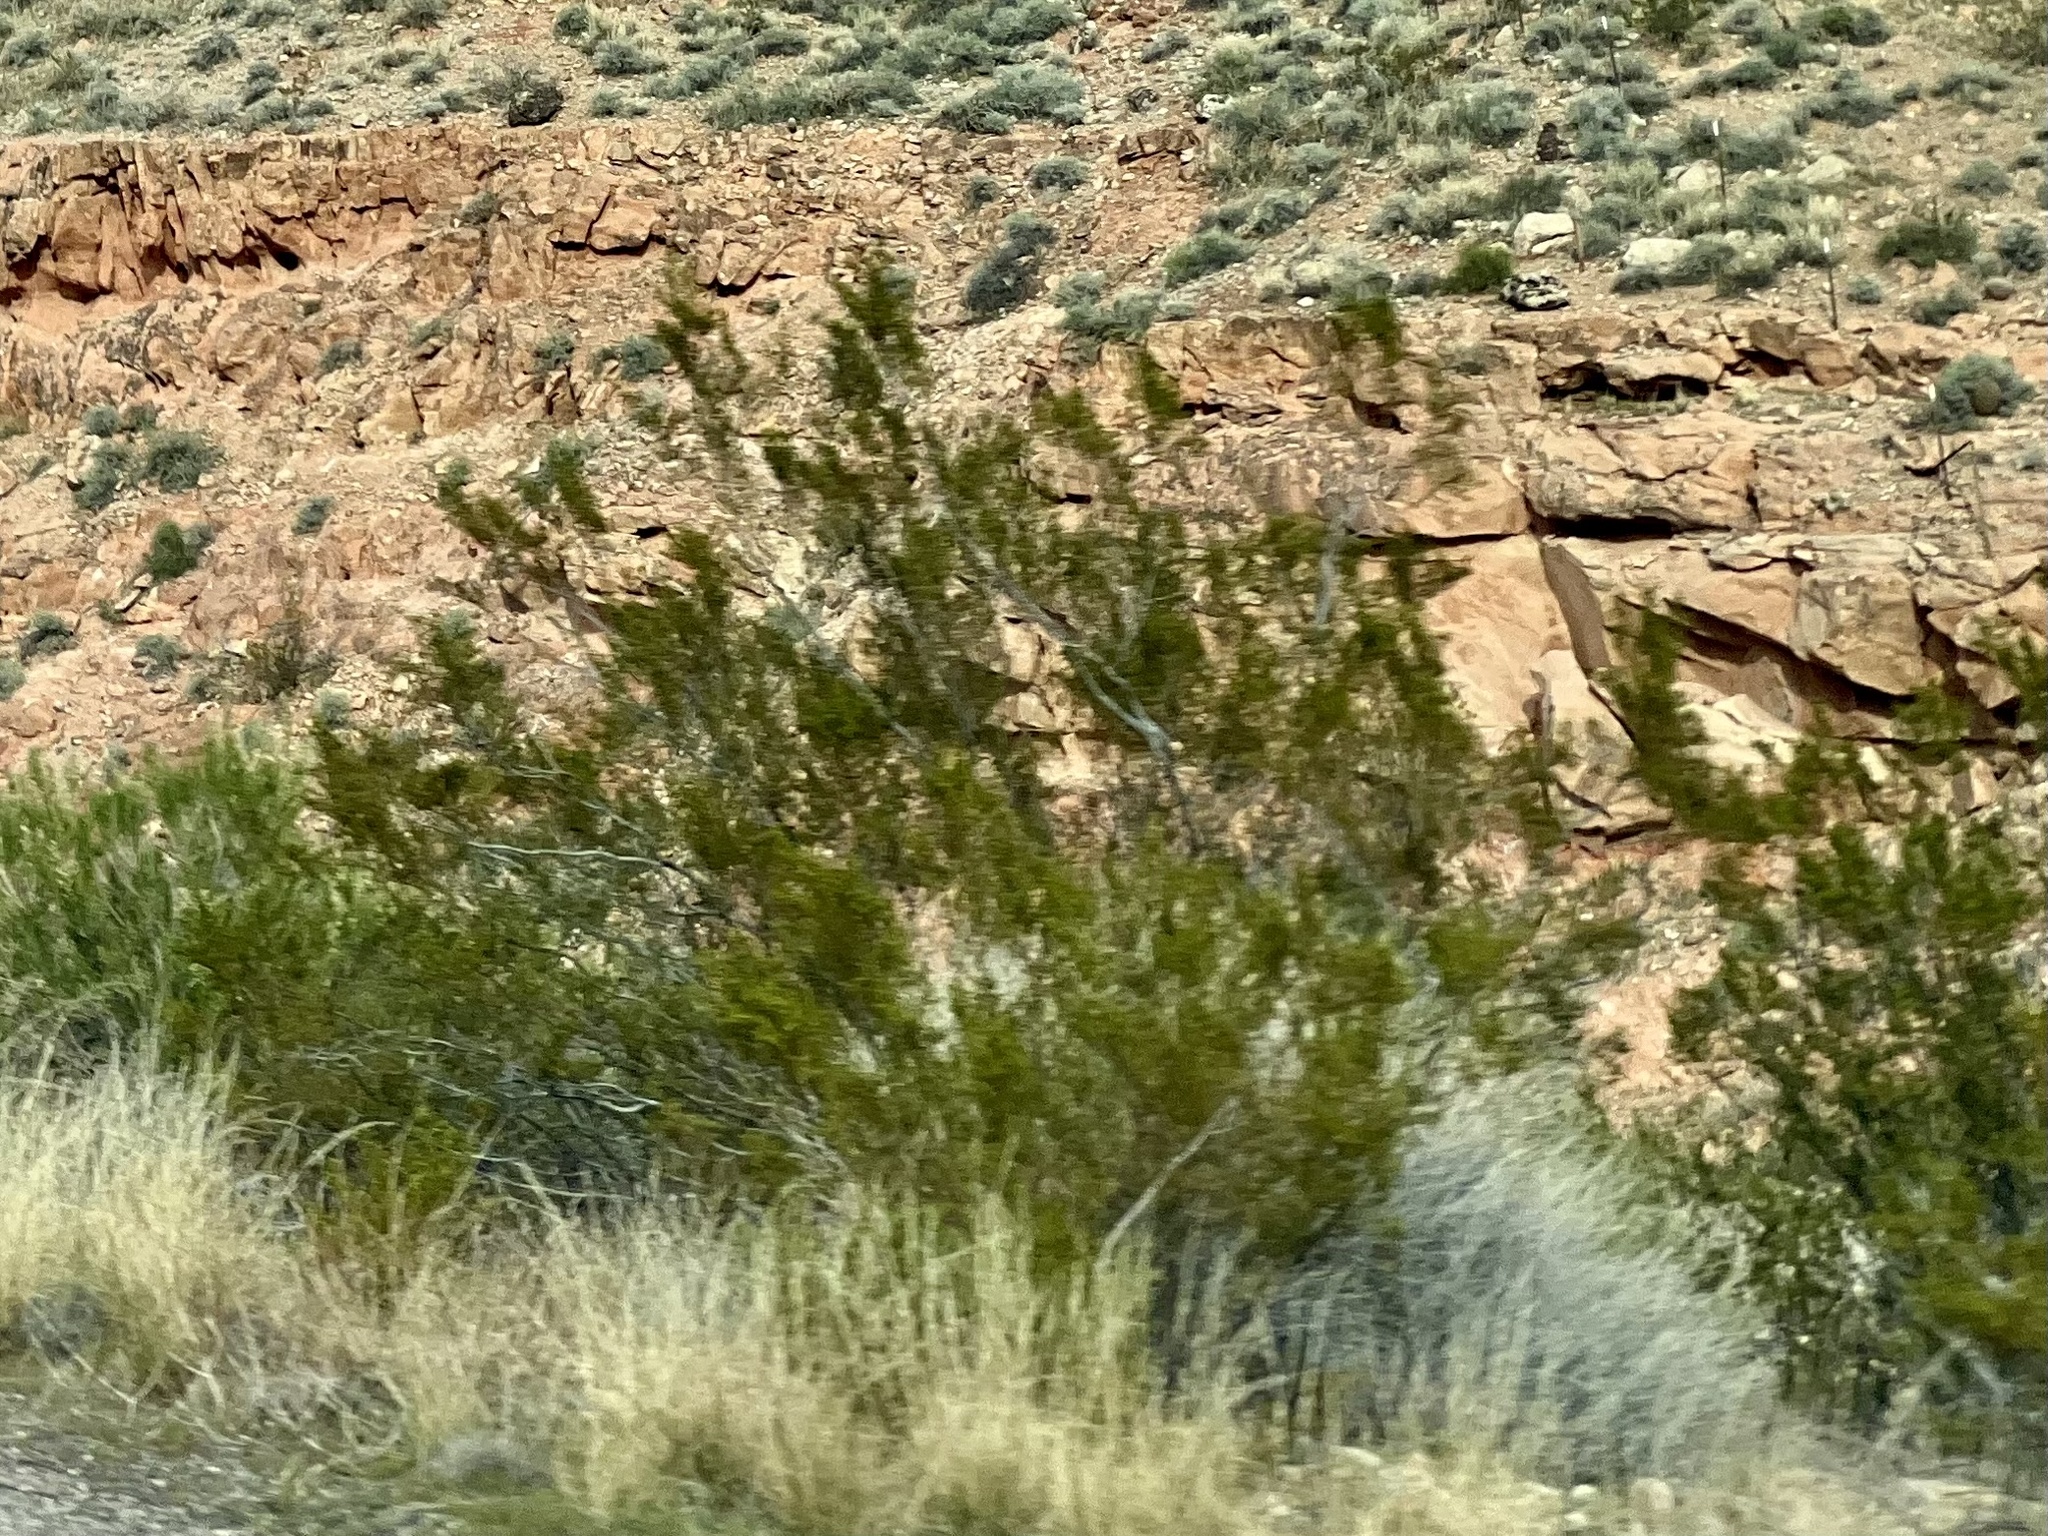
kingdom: Plantae
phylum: Tracheophyta
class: Magnoliopsida
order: Zygophyllales
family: Zygophyllaceae
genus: Larrea
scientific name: Larrea tridentata
